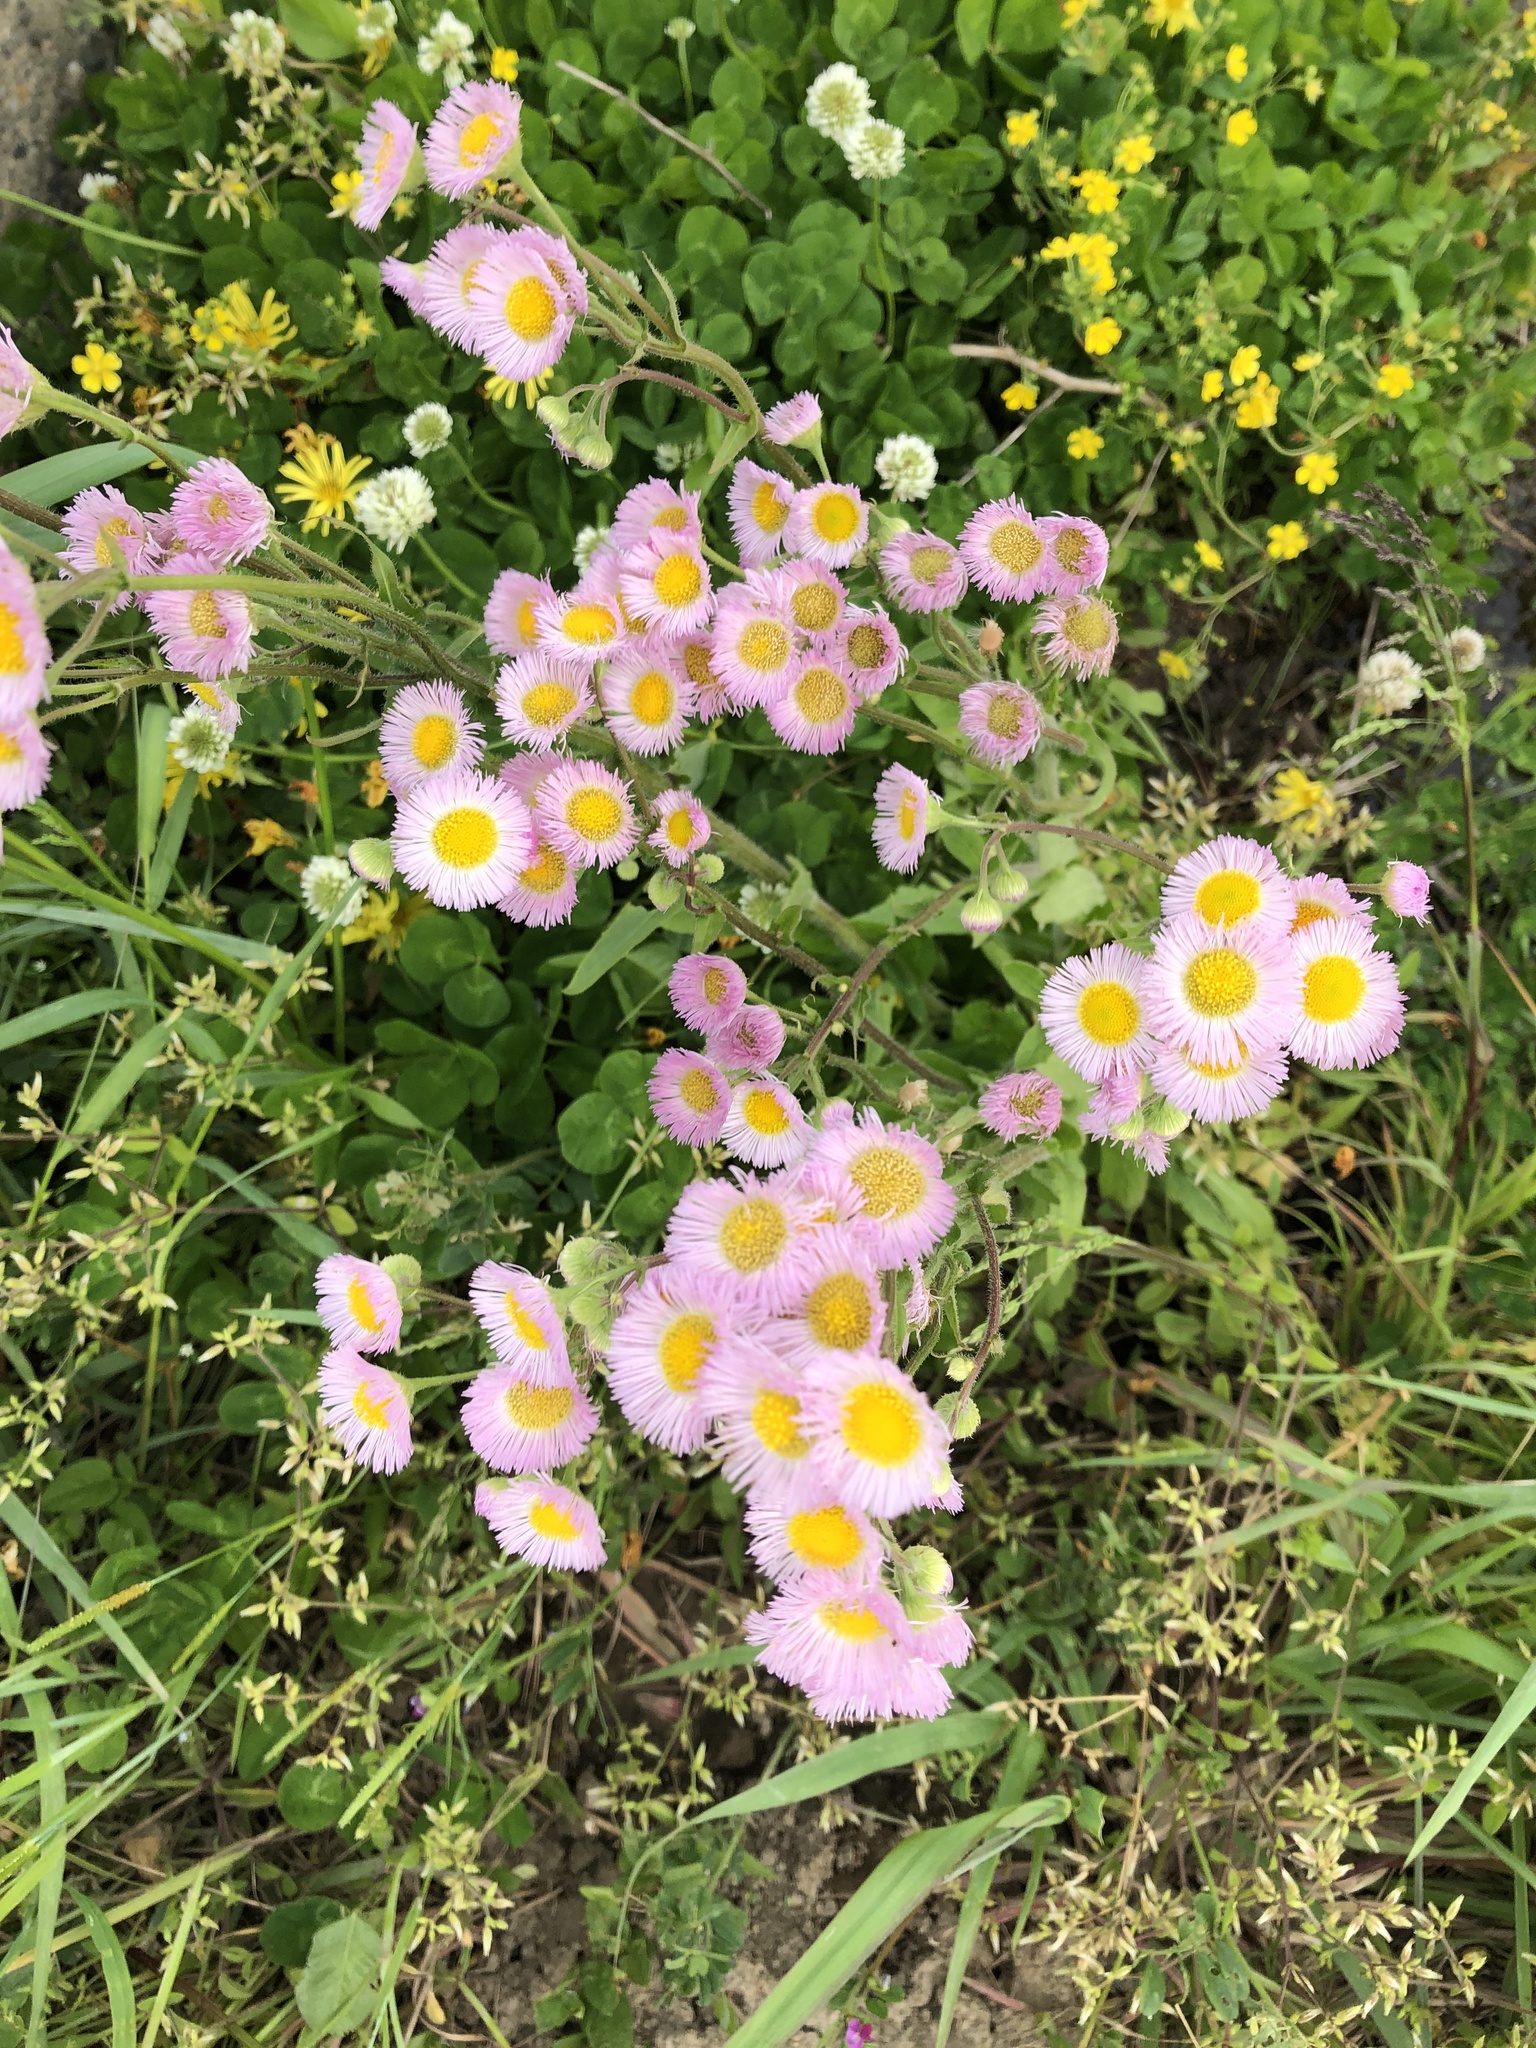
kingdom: Plantae
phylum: Tracheophyta
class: Magnoliopsida
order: Asterales
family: Asteraceae
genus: Erigeron
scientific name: Erigeron philadelphicus
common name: Robin's-plantain
